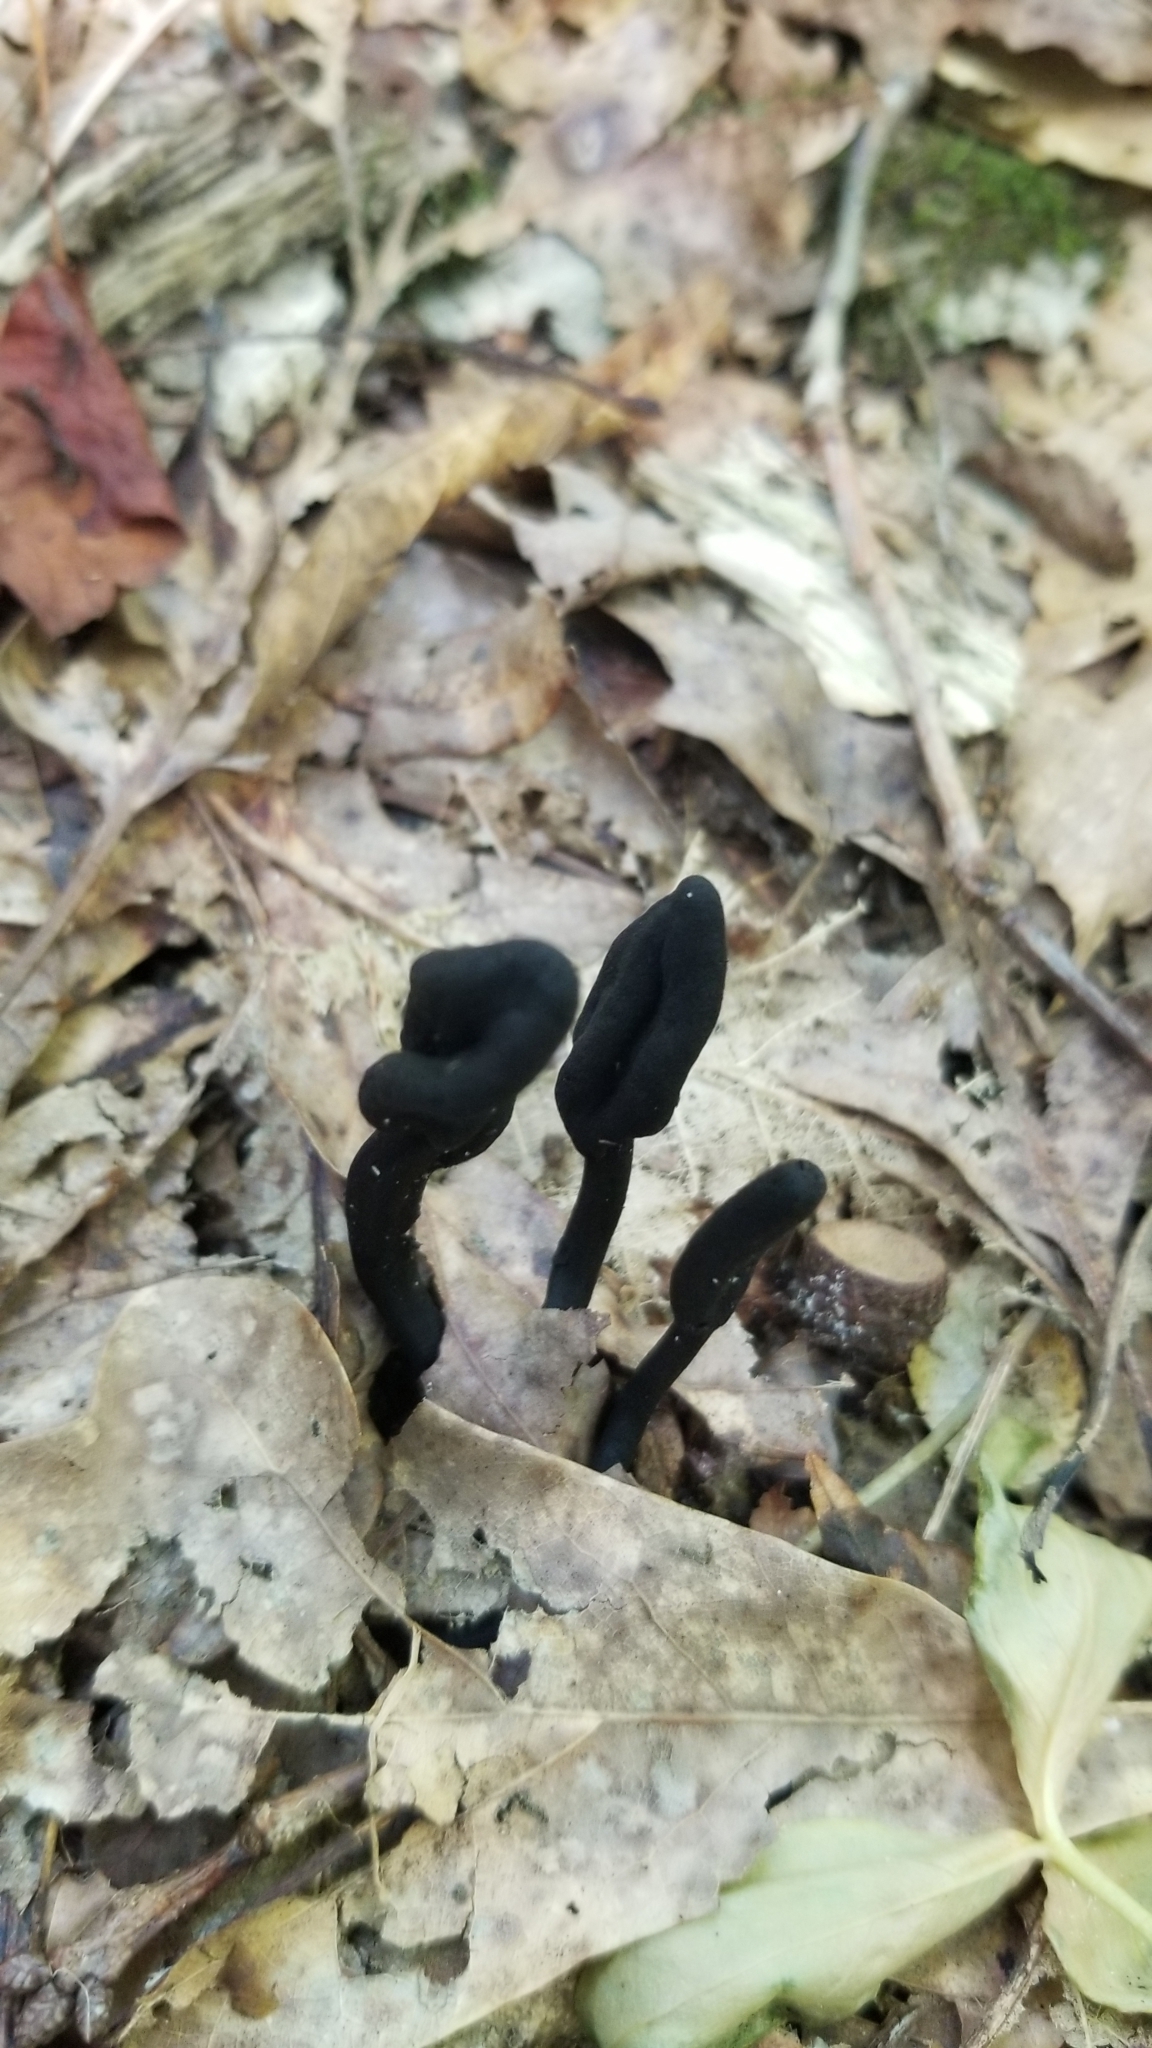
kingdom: Fungi
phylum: Ascomycota
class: Geoglossomycetes
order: Geoglossales
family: Geoglossaceae
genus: Geoglossum
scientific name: Geoglossum
